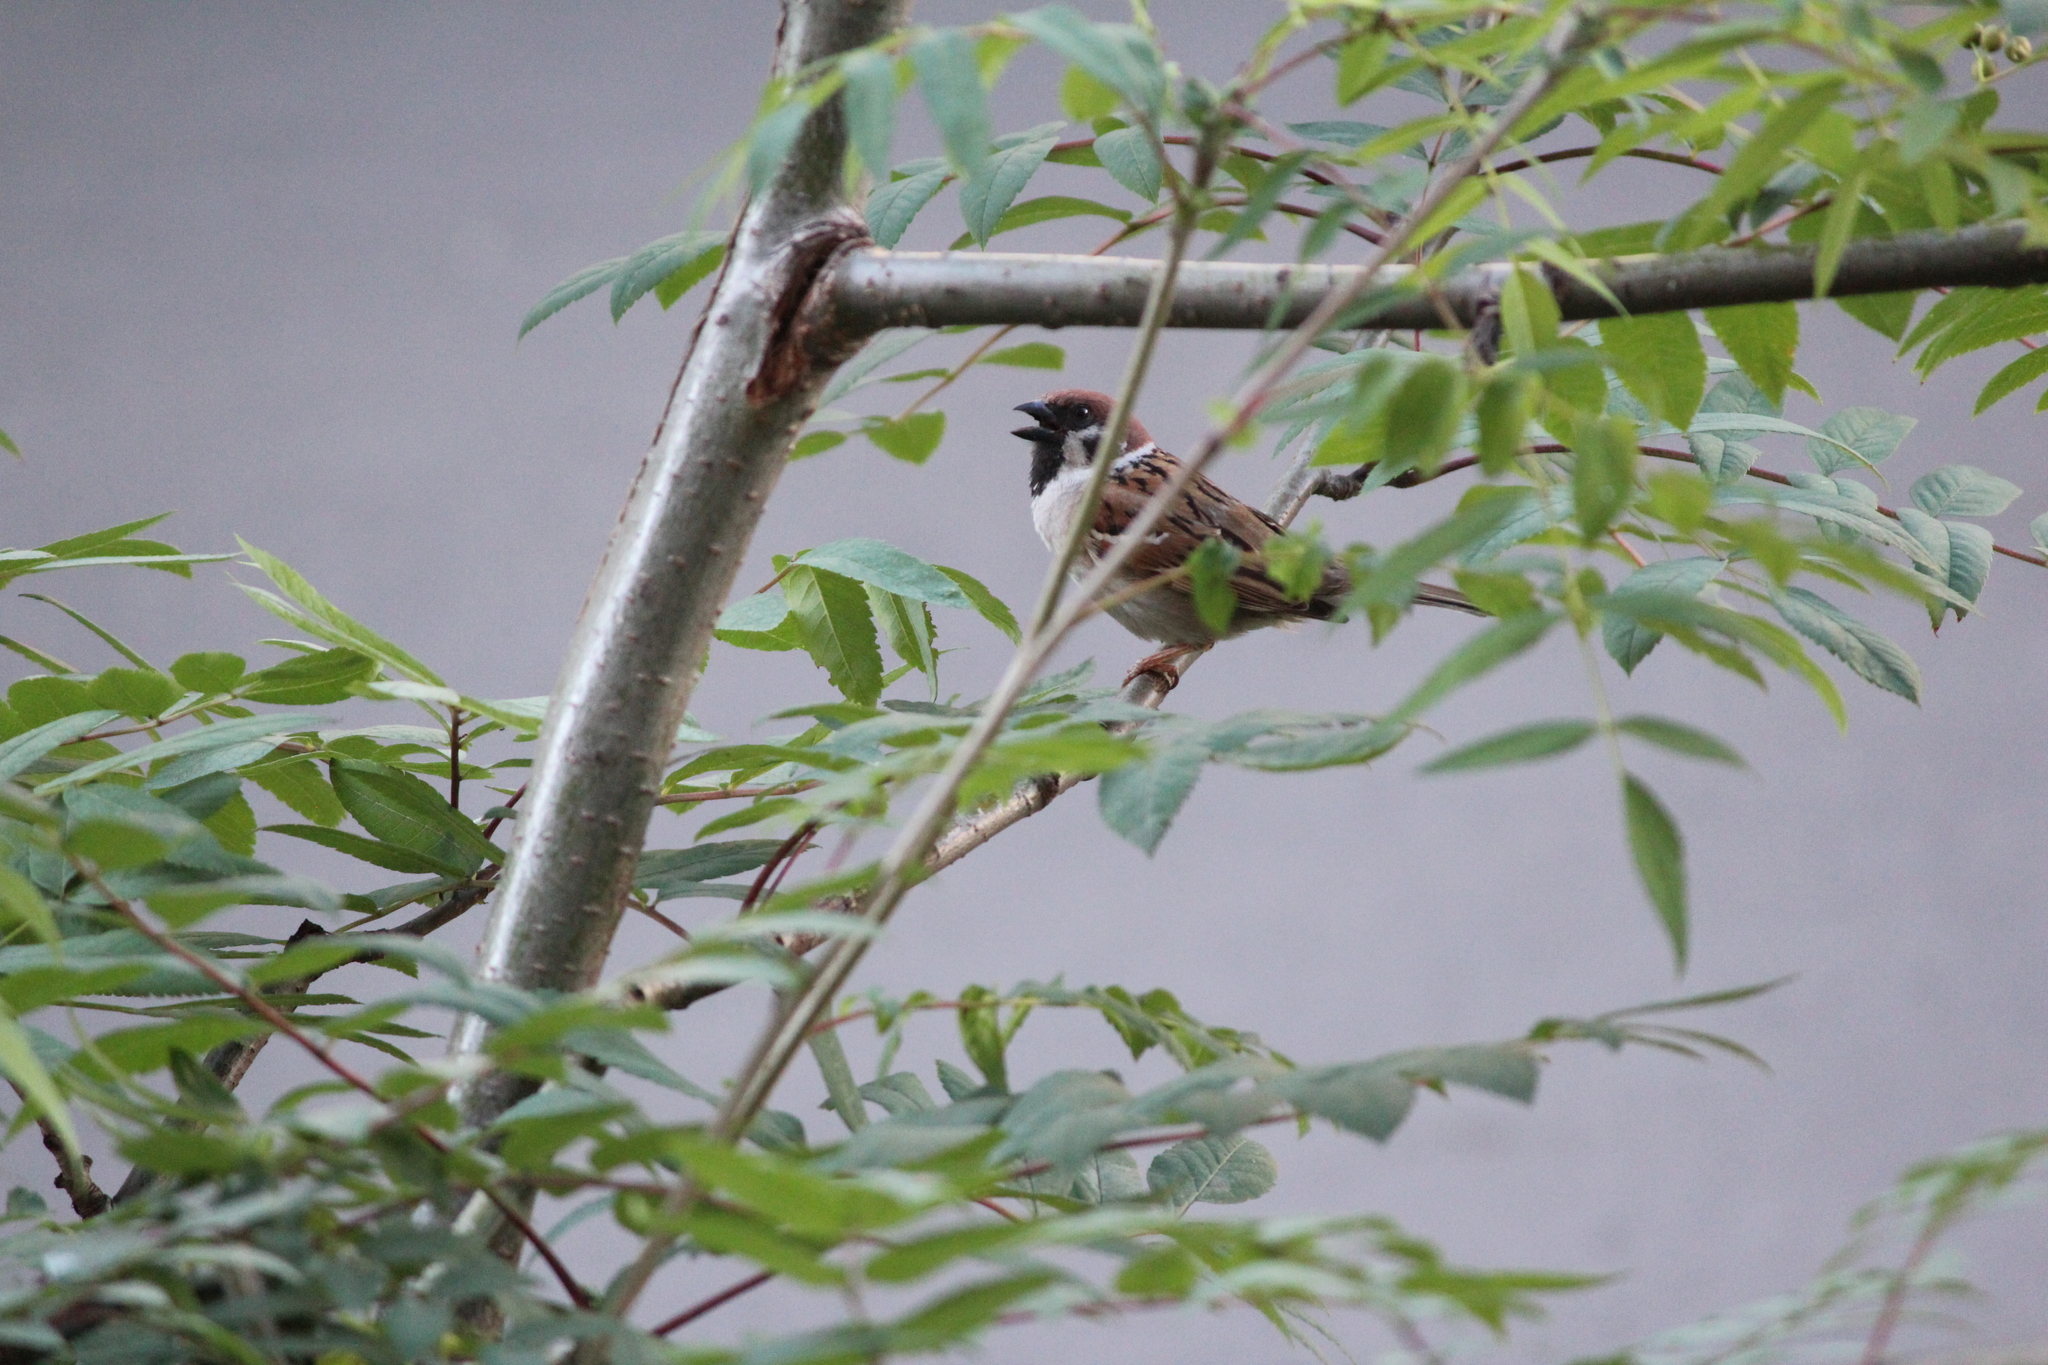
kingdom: Animalia
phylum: Chordata
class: Aves
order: Passeriformes
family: Passeridae
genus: Passer
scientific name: Passer montanus
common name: Eurasian tree sparrow
